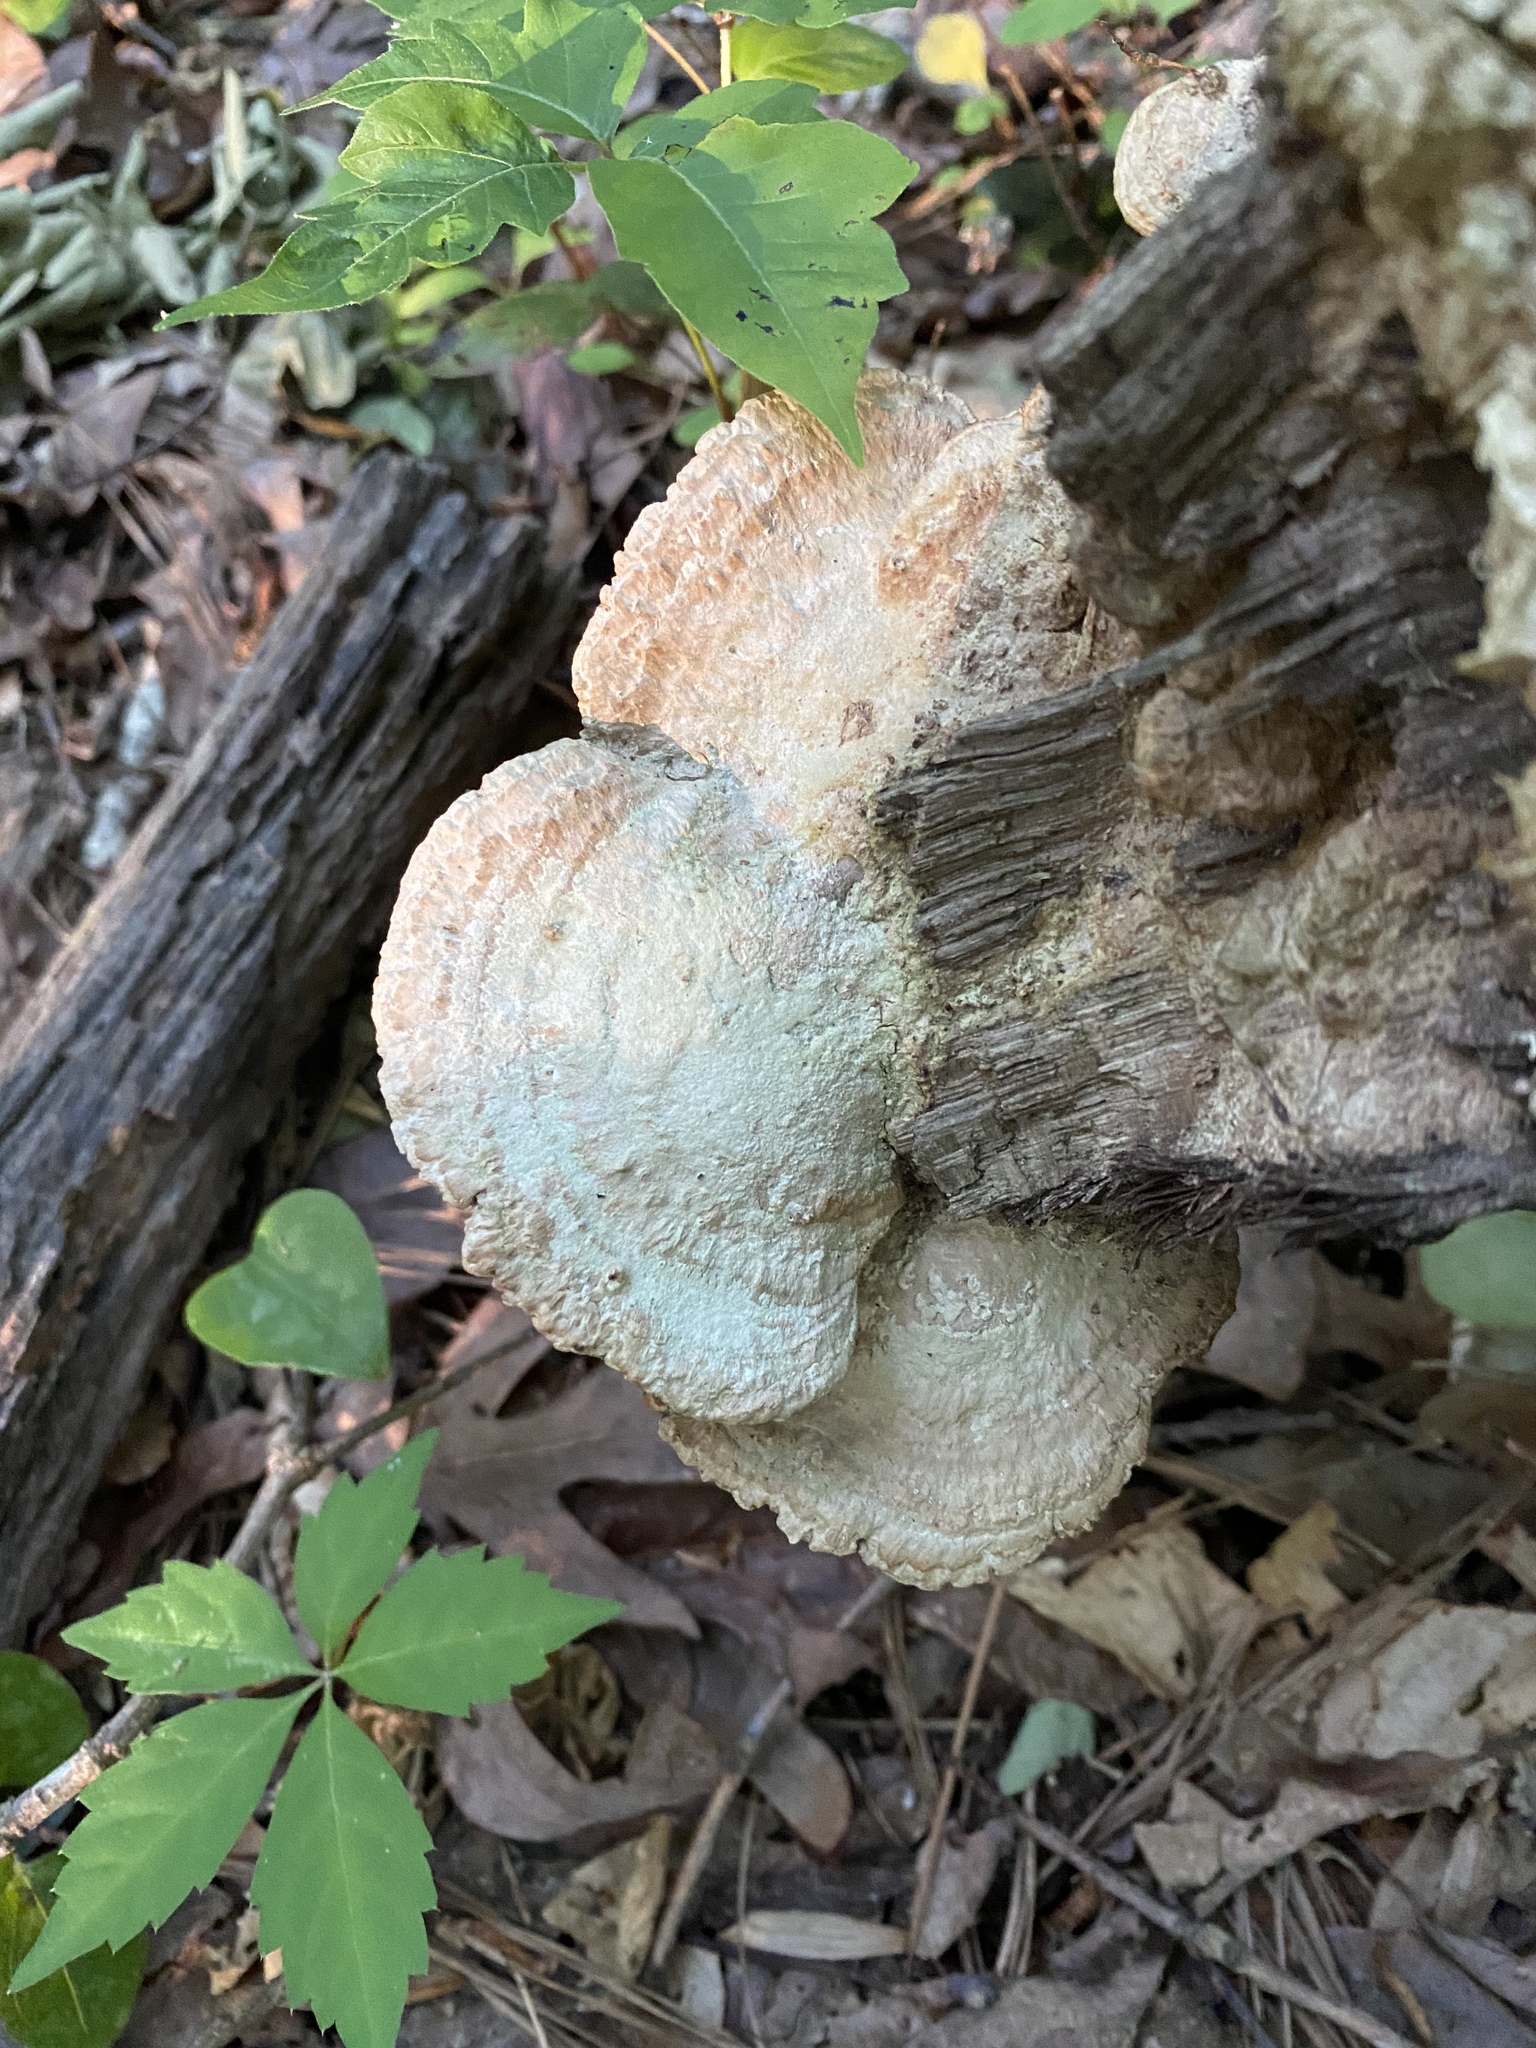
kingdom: Fungi
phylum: Basidiomycota
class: Agaricomycetes
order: Polyporales
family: Fomitopsidaceae
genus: Fomitopsis
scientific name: Fomitopsis
